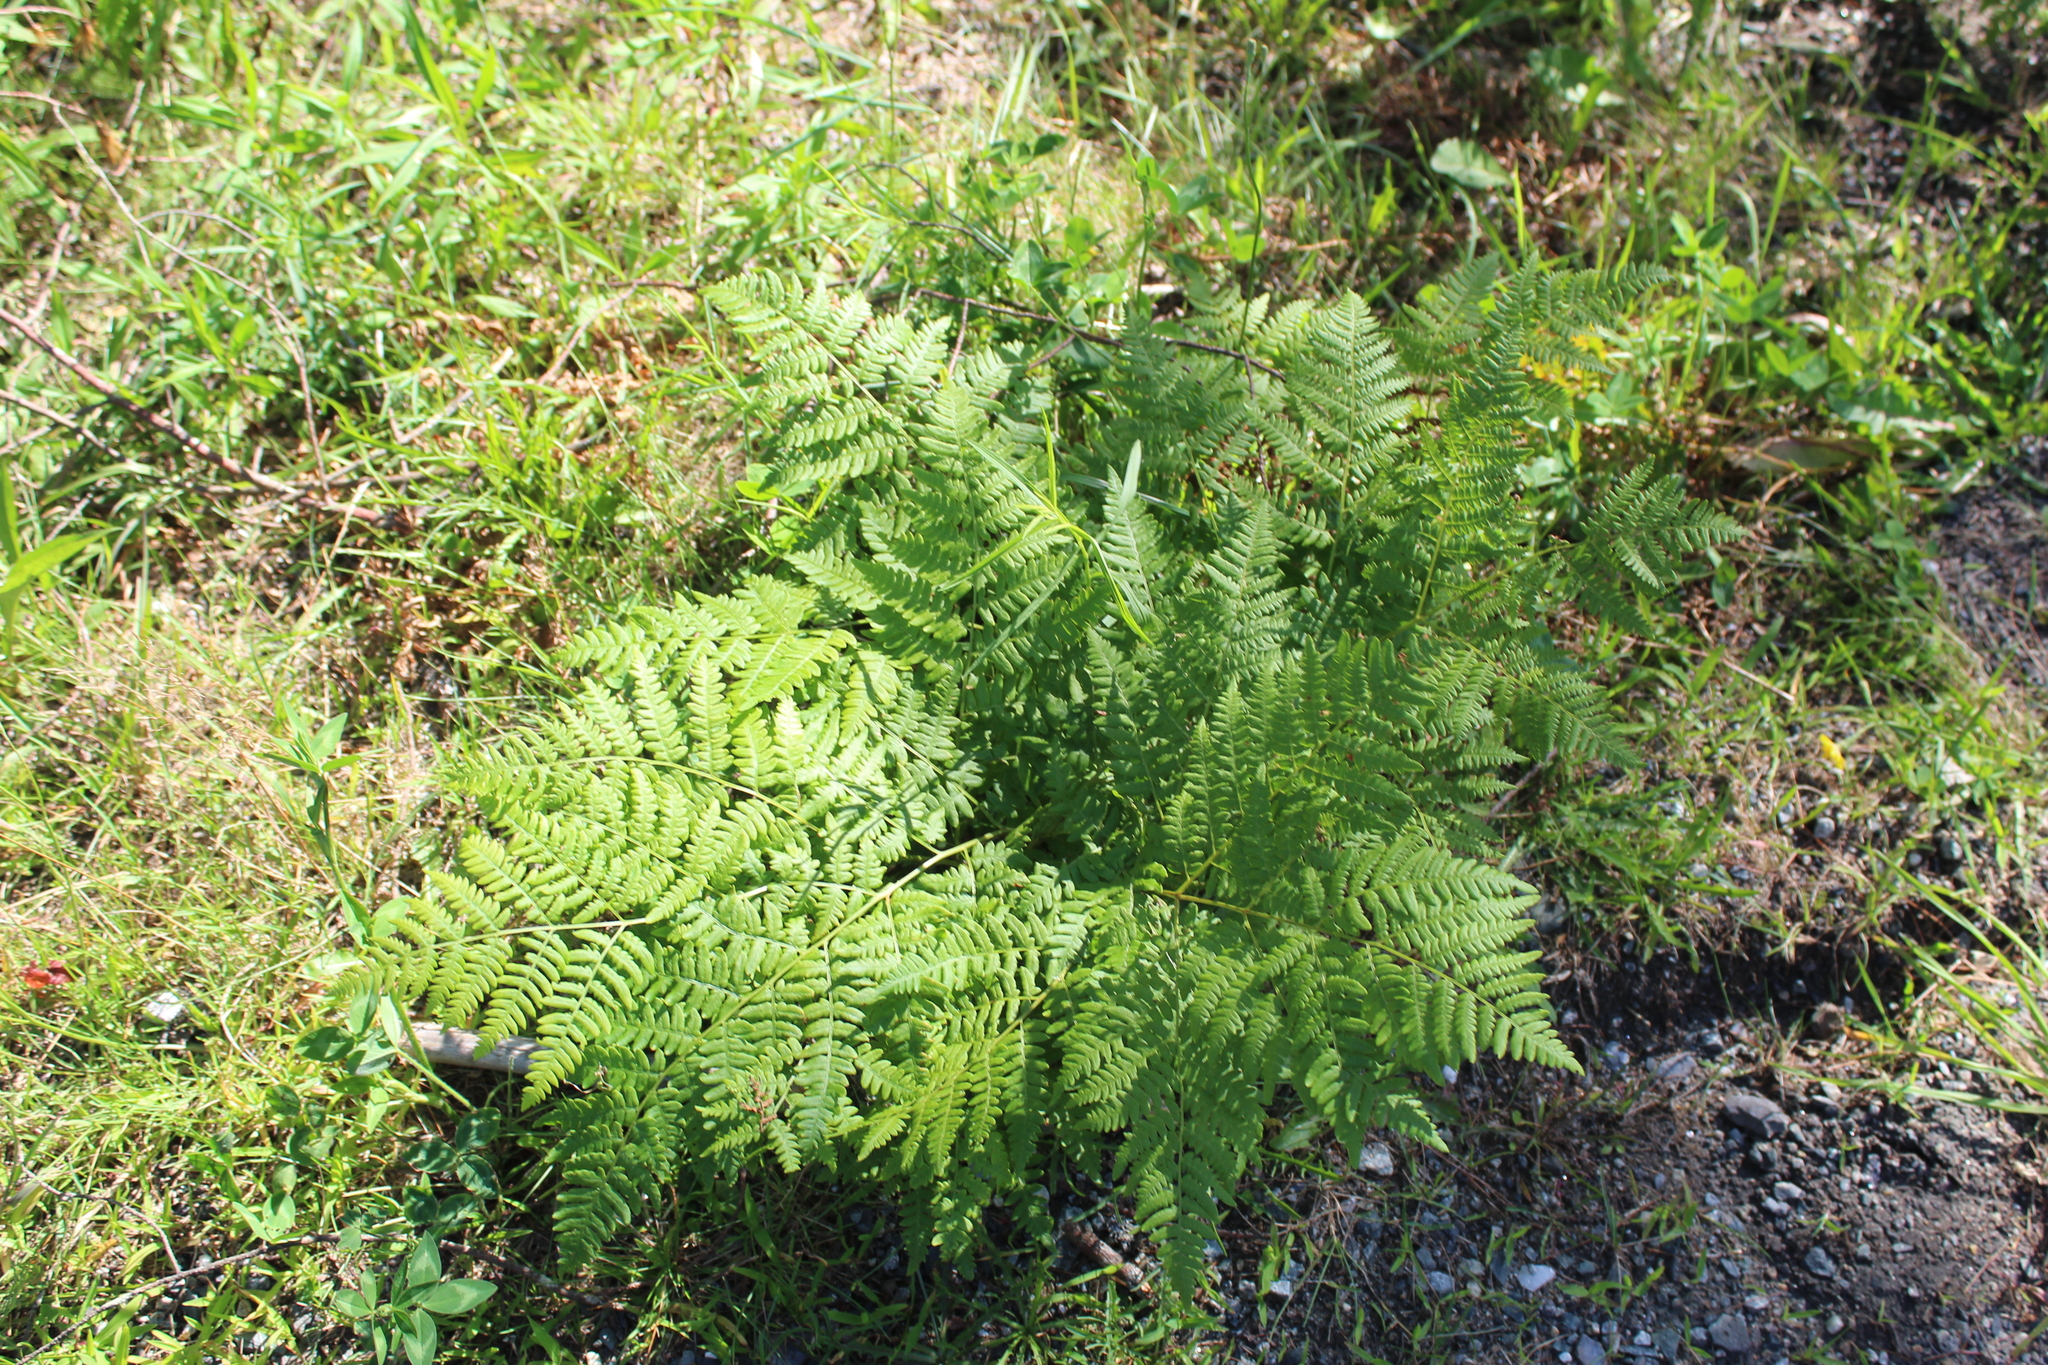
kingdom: Plantae
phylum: Tracheophyta
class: Polypodiopsida
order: Polypodiales
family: Dennstaedtiaceae
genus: Pteridium
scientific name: Pteridium aquilinum
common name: Bracken
